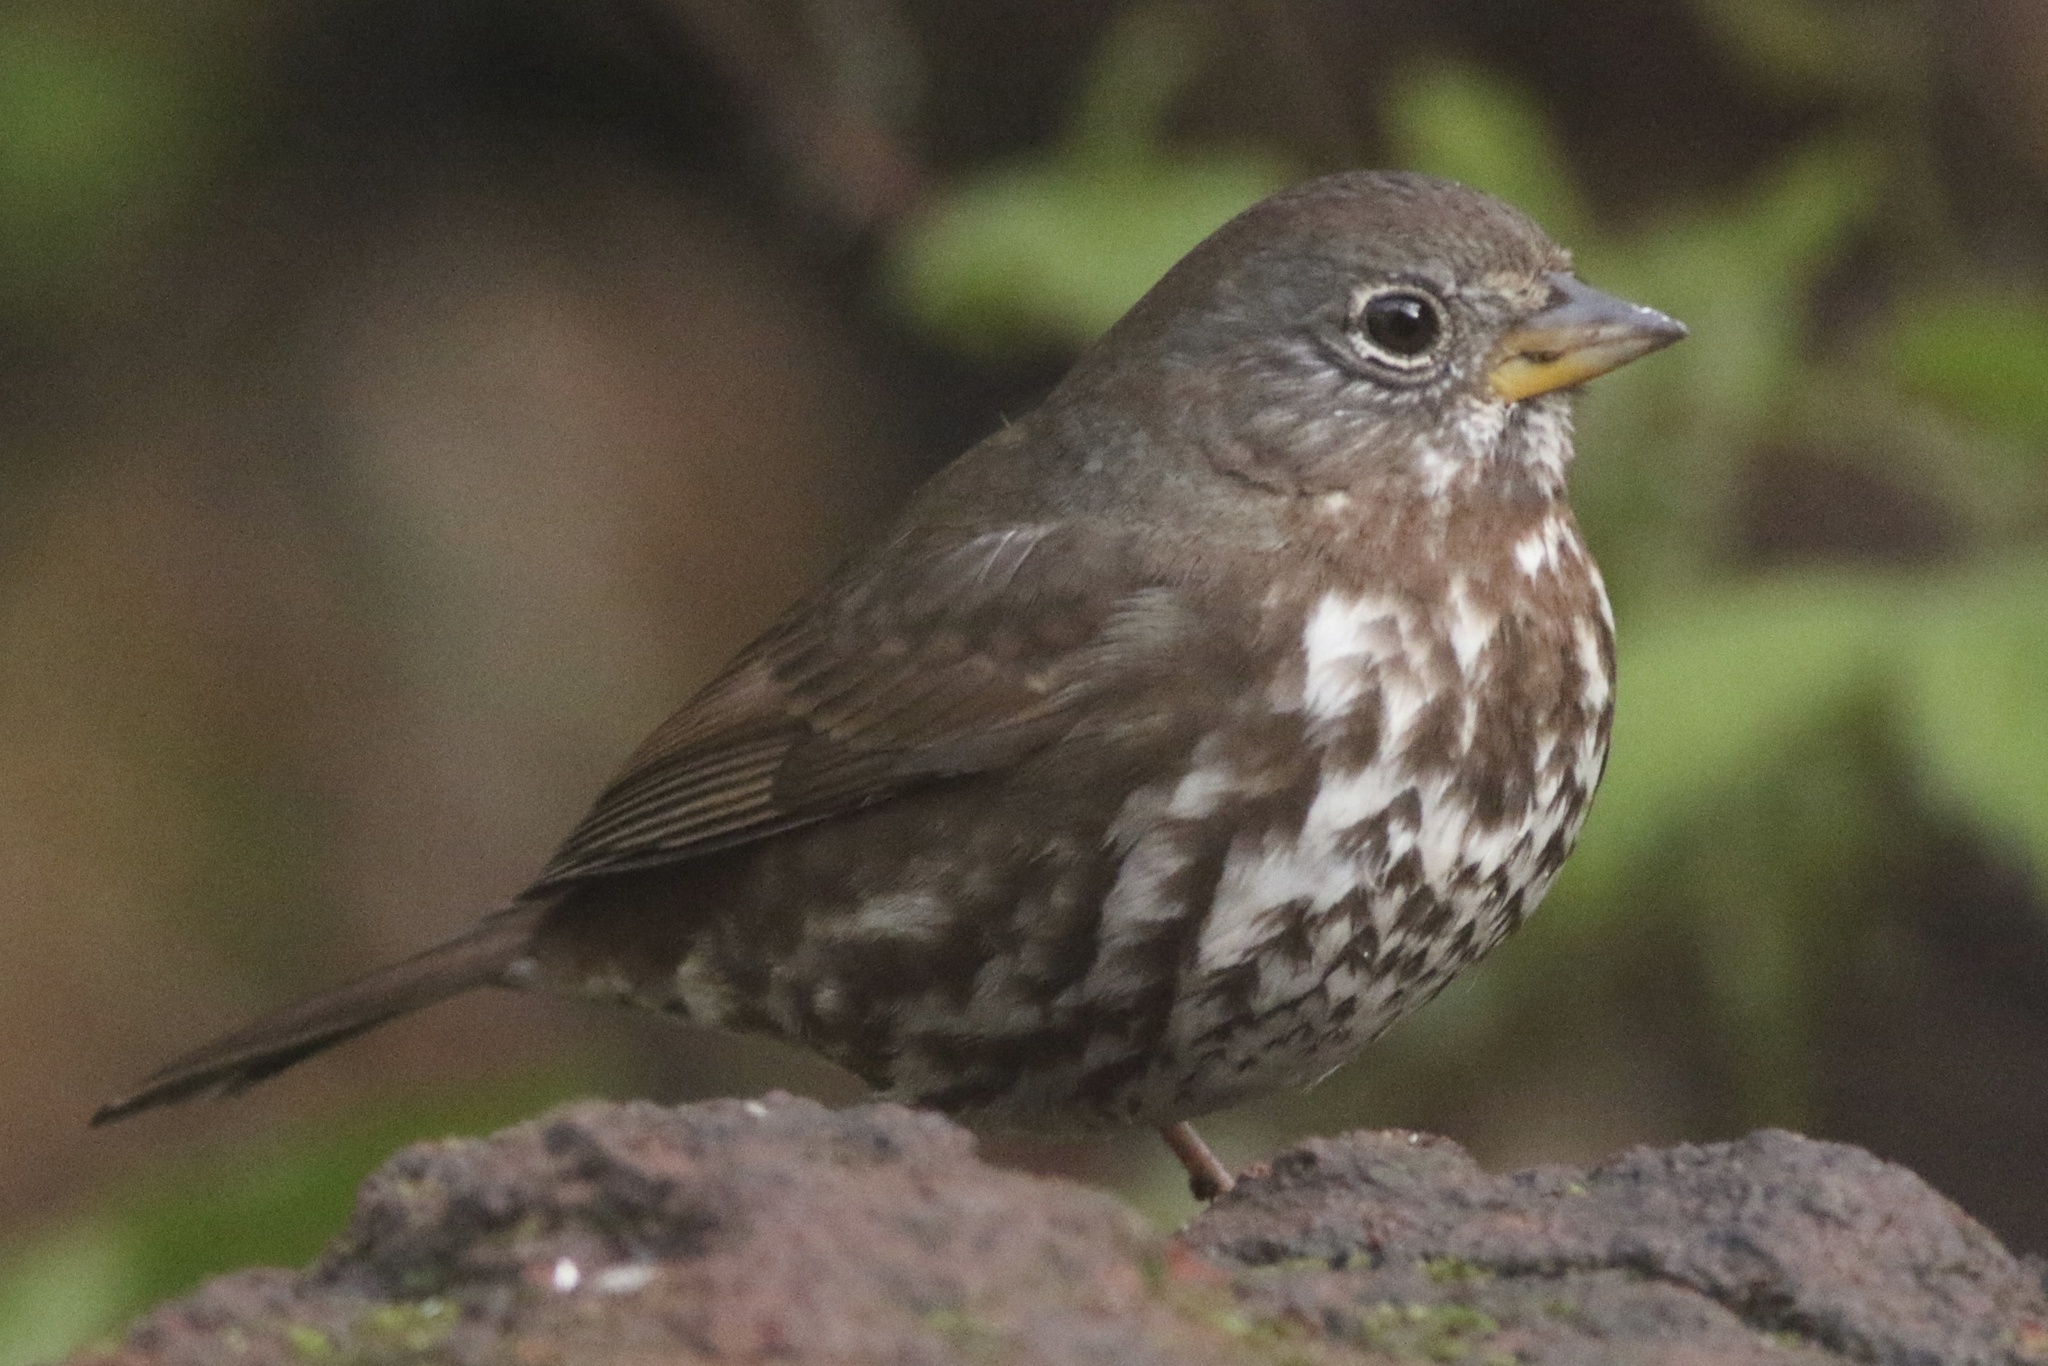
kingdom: Animalia
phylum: Chordata
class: Aves
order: Passeriformes
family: Passerellidae
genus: Passerella
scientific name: Passerella iliaca
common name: Fox sparrow
